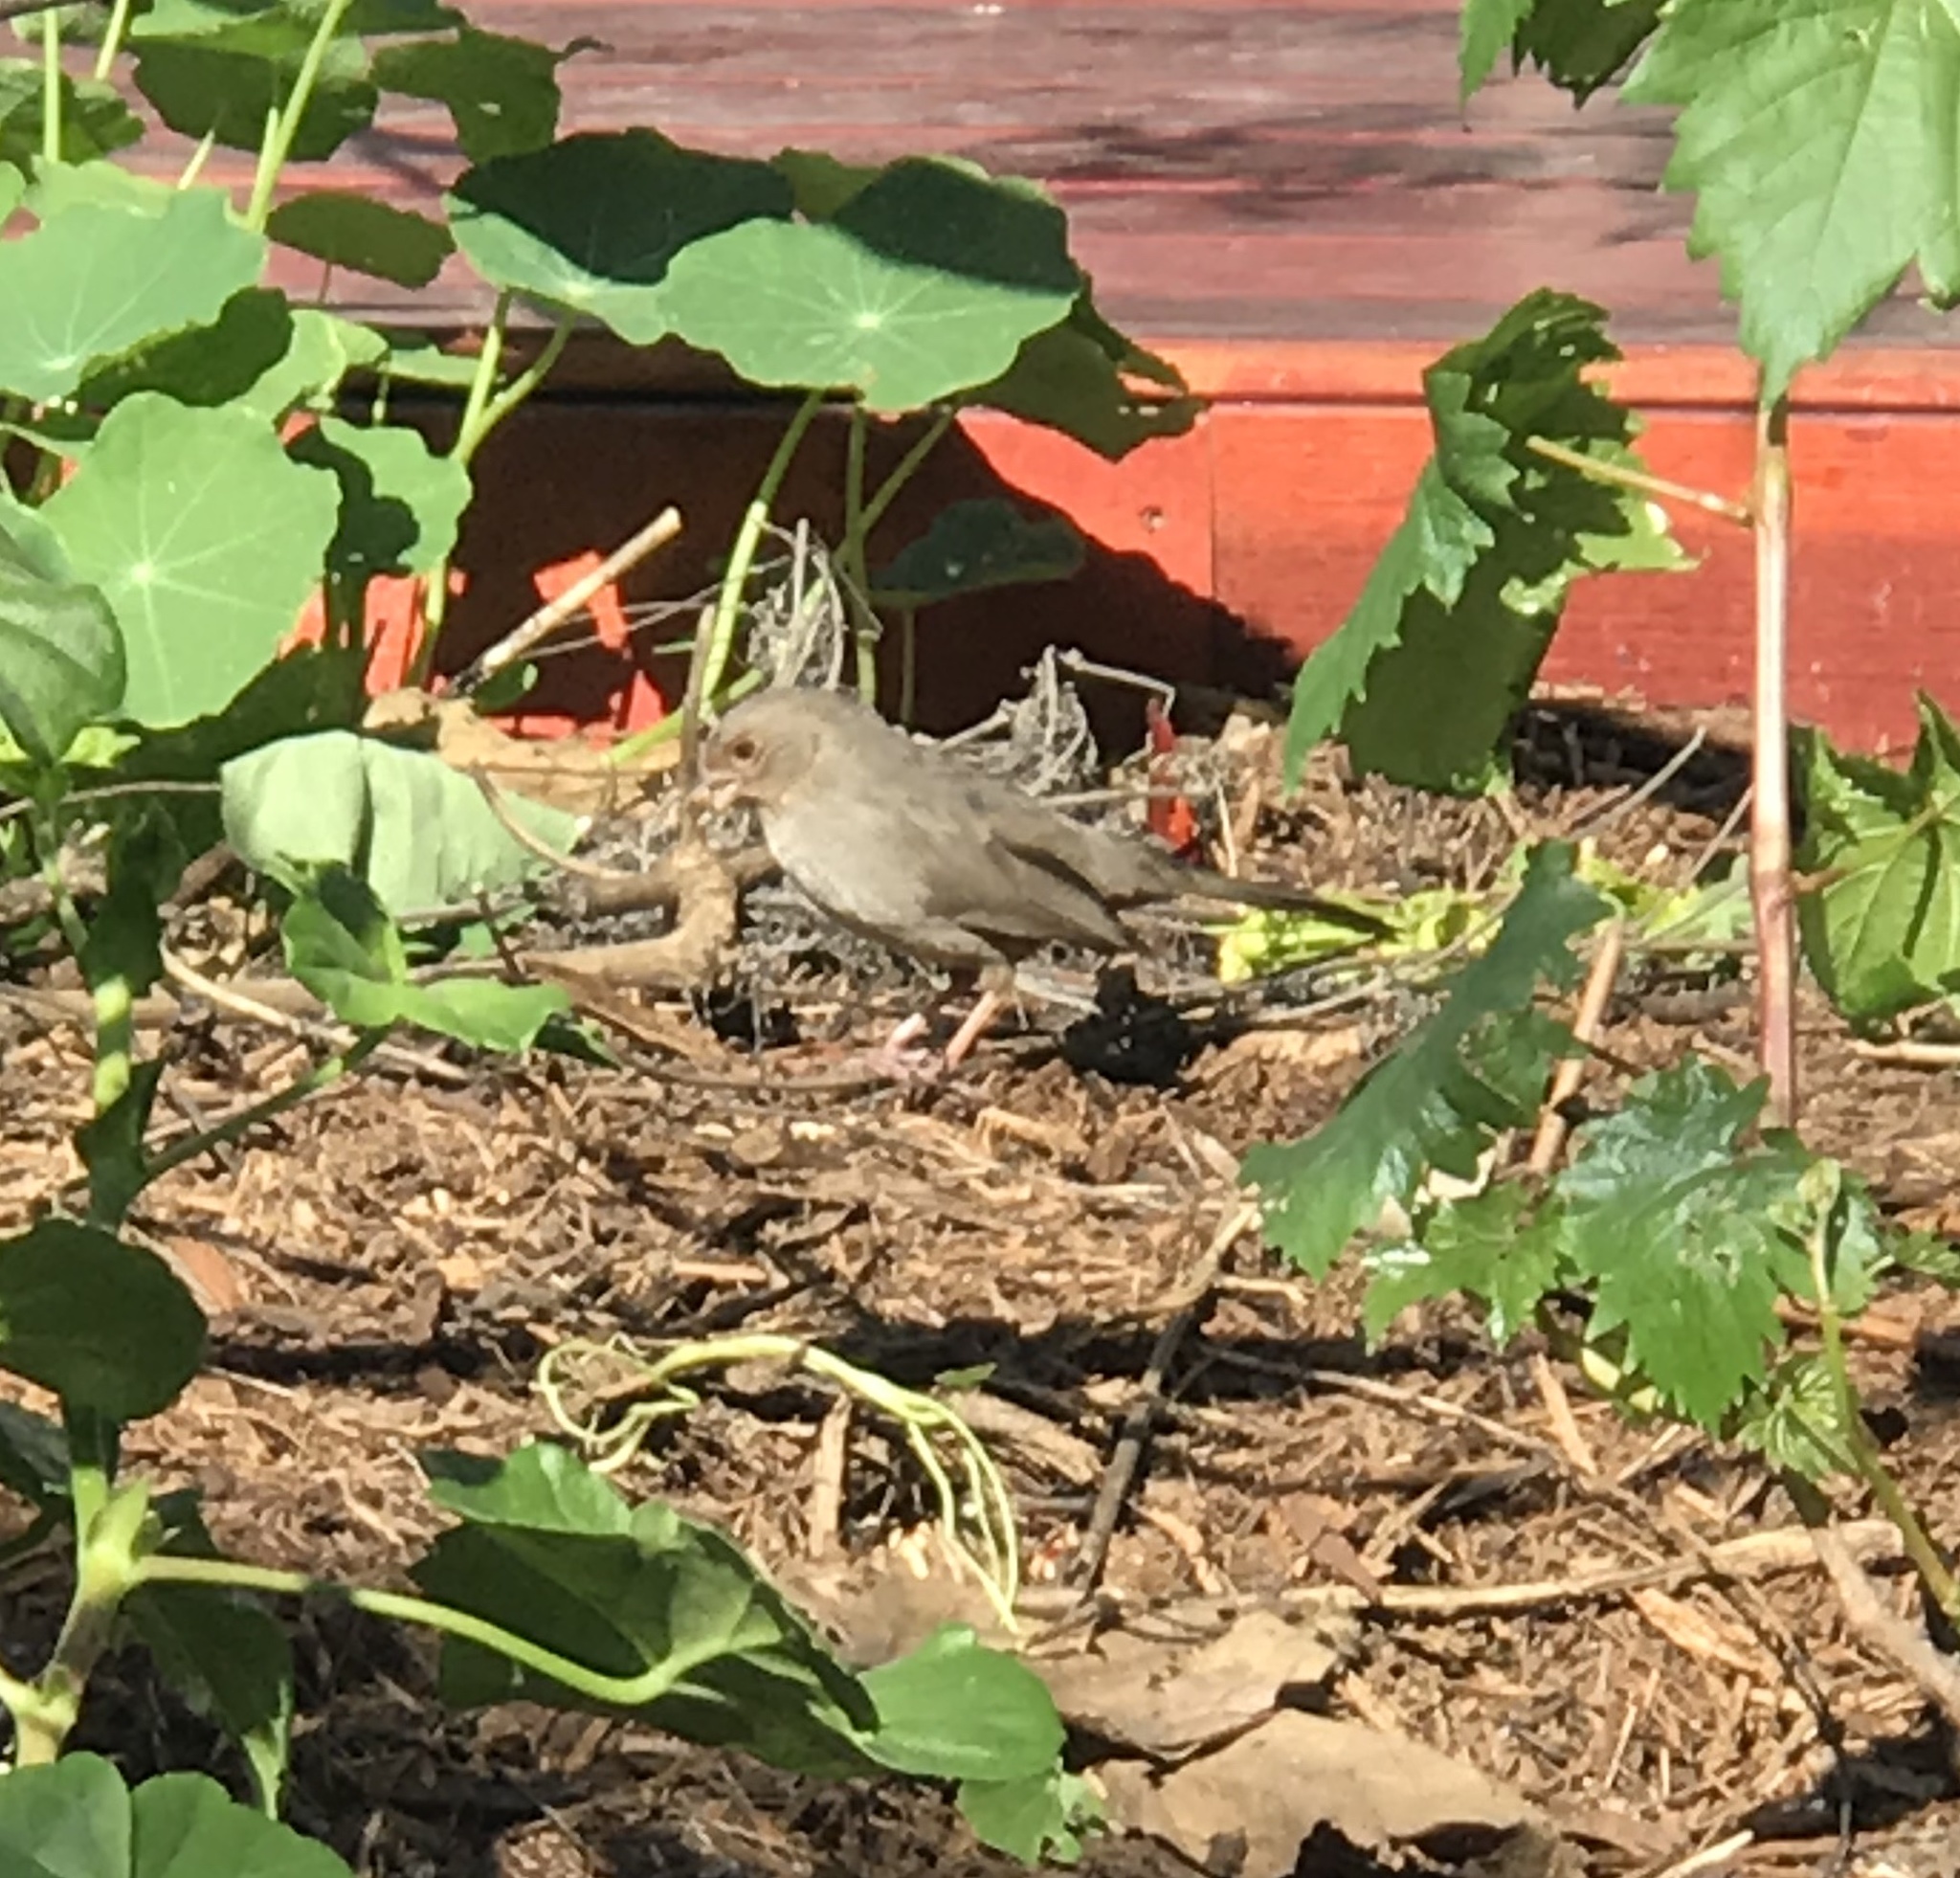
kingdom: Animalia
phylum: Chordata
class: Aves
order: Passeriformes
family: Passerellidae
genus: Melozone
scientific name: Melozone crissalis
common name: California towhee
